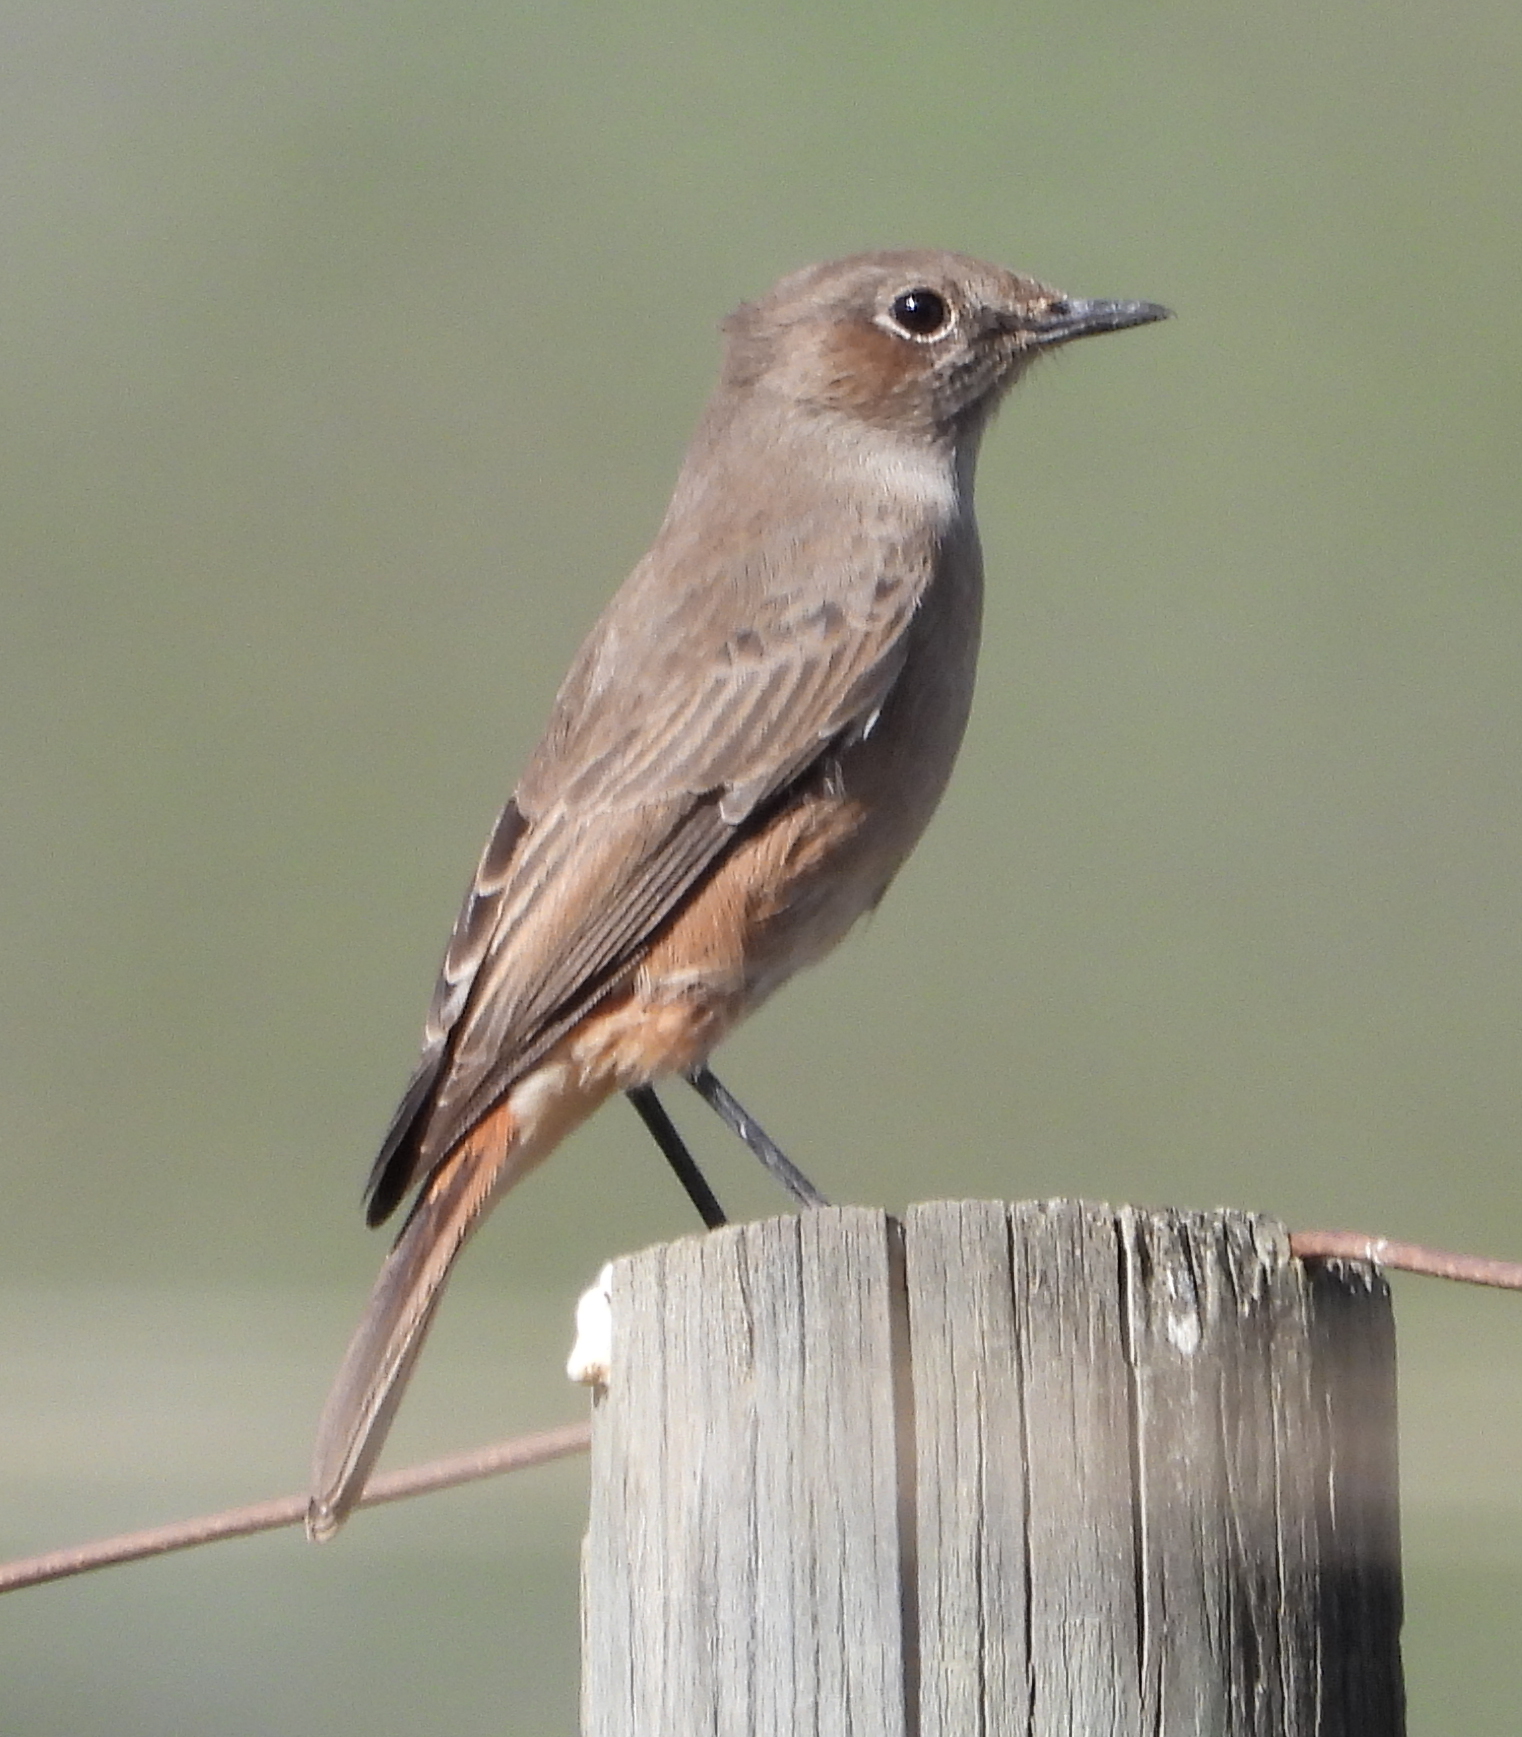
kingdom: Animalia
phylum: Chordata
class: Aves
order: Passeriformes
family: Muscicapidae
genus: Oenanthe
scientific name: Oenanthe familiaris
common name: Familiar chat
